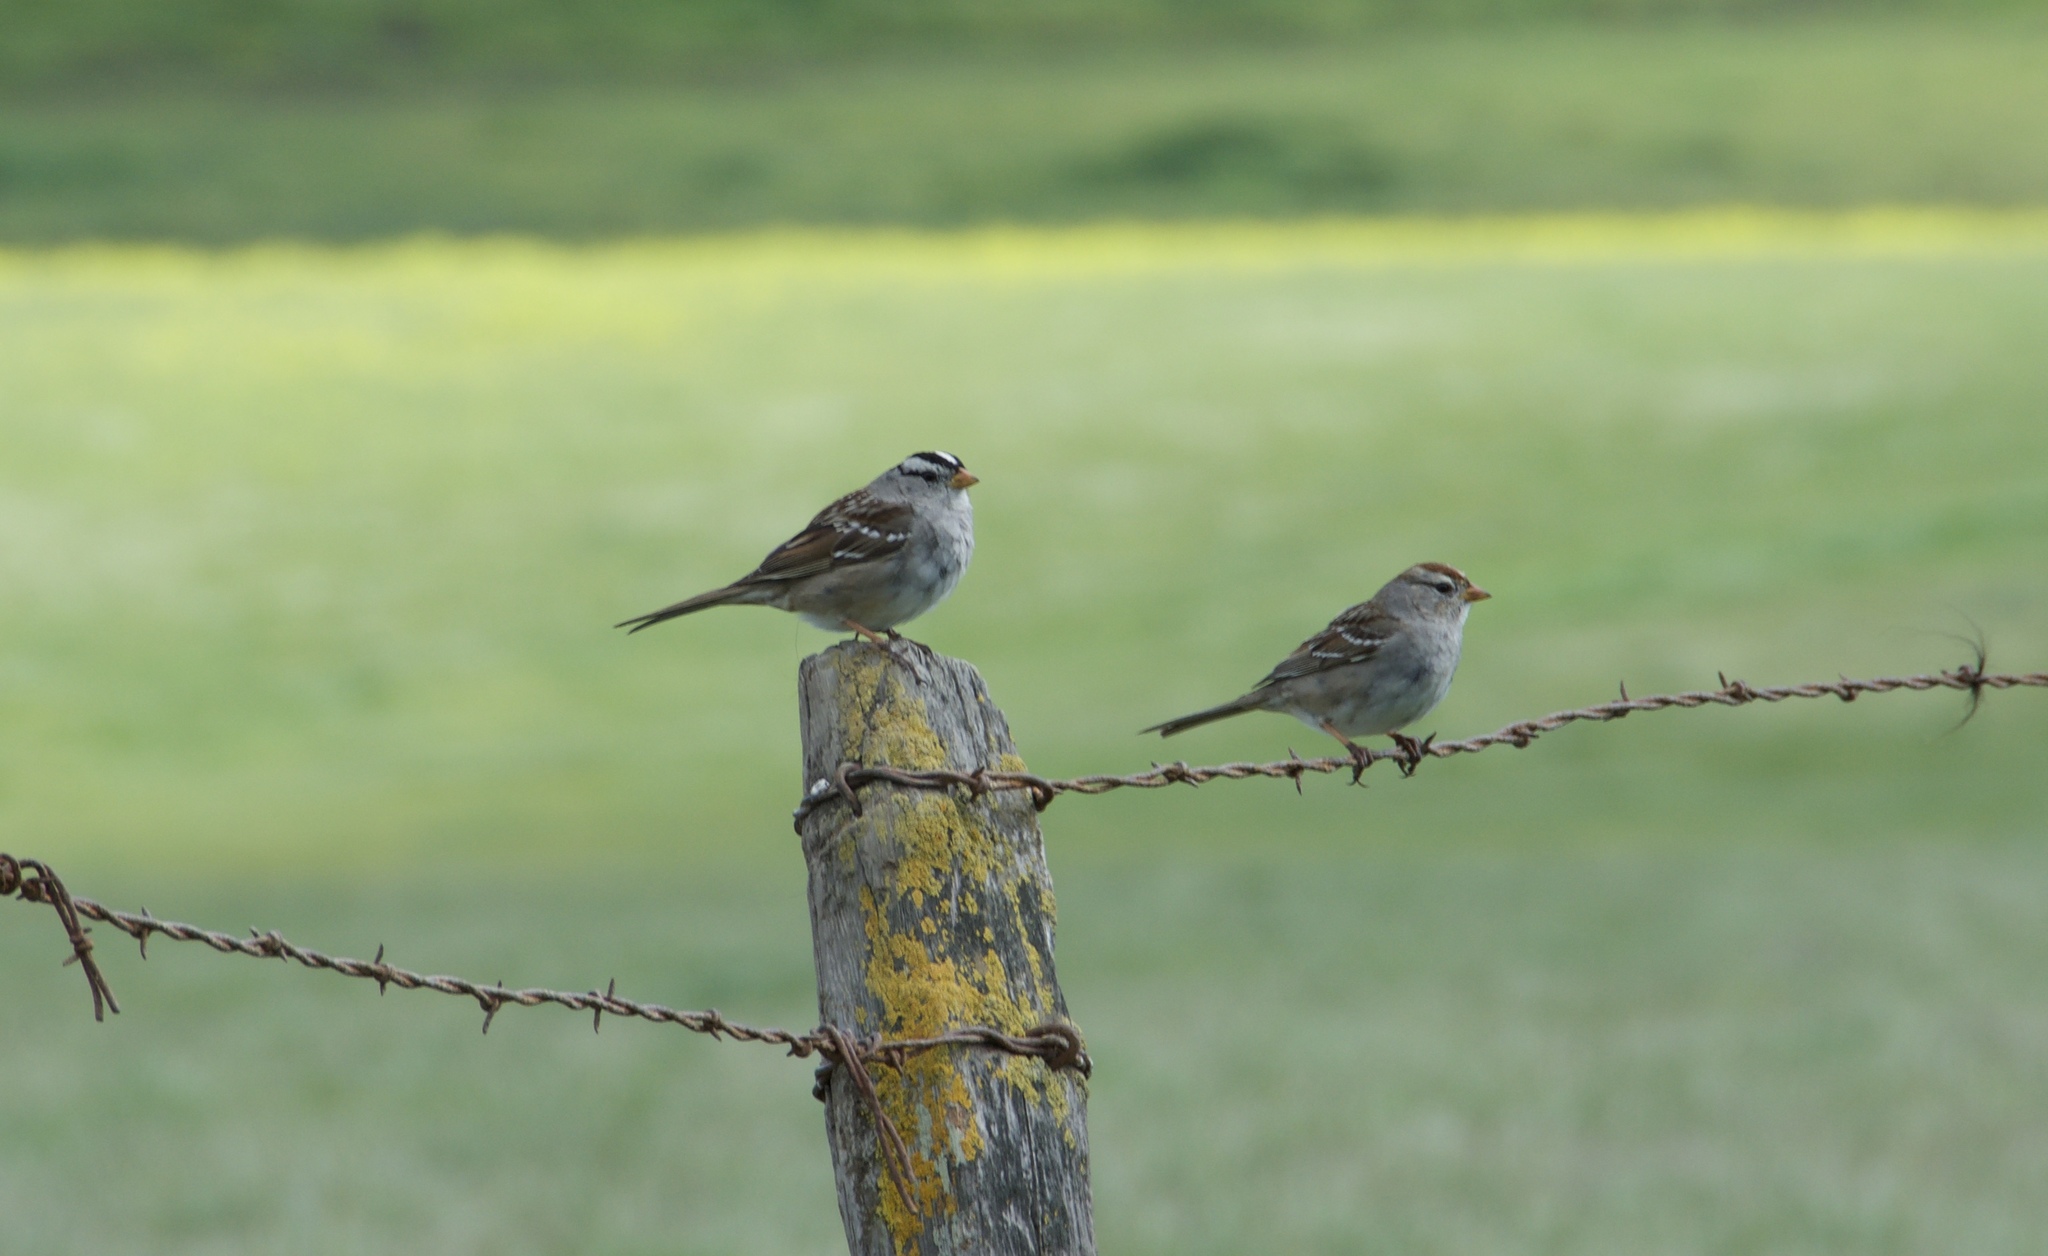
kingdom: Animalia
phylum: Chordata
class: Aves
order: Passeriformes
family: Passerellidae
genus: Zonotrichia
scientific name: Zonotrichia leucophrys
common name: White-crowned sparrow
